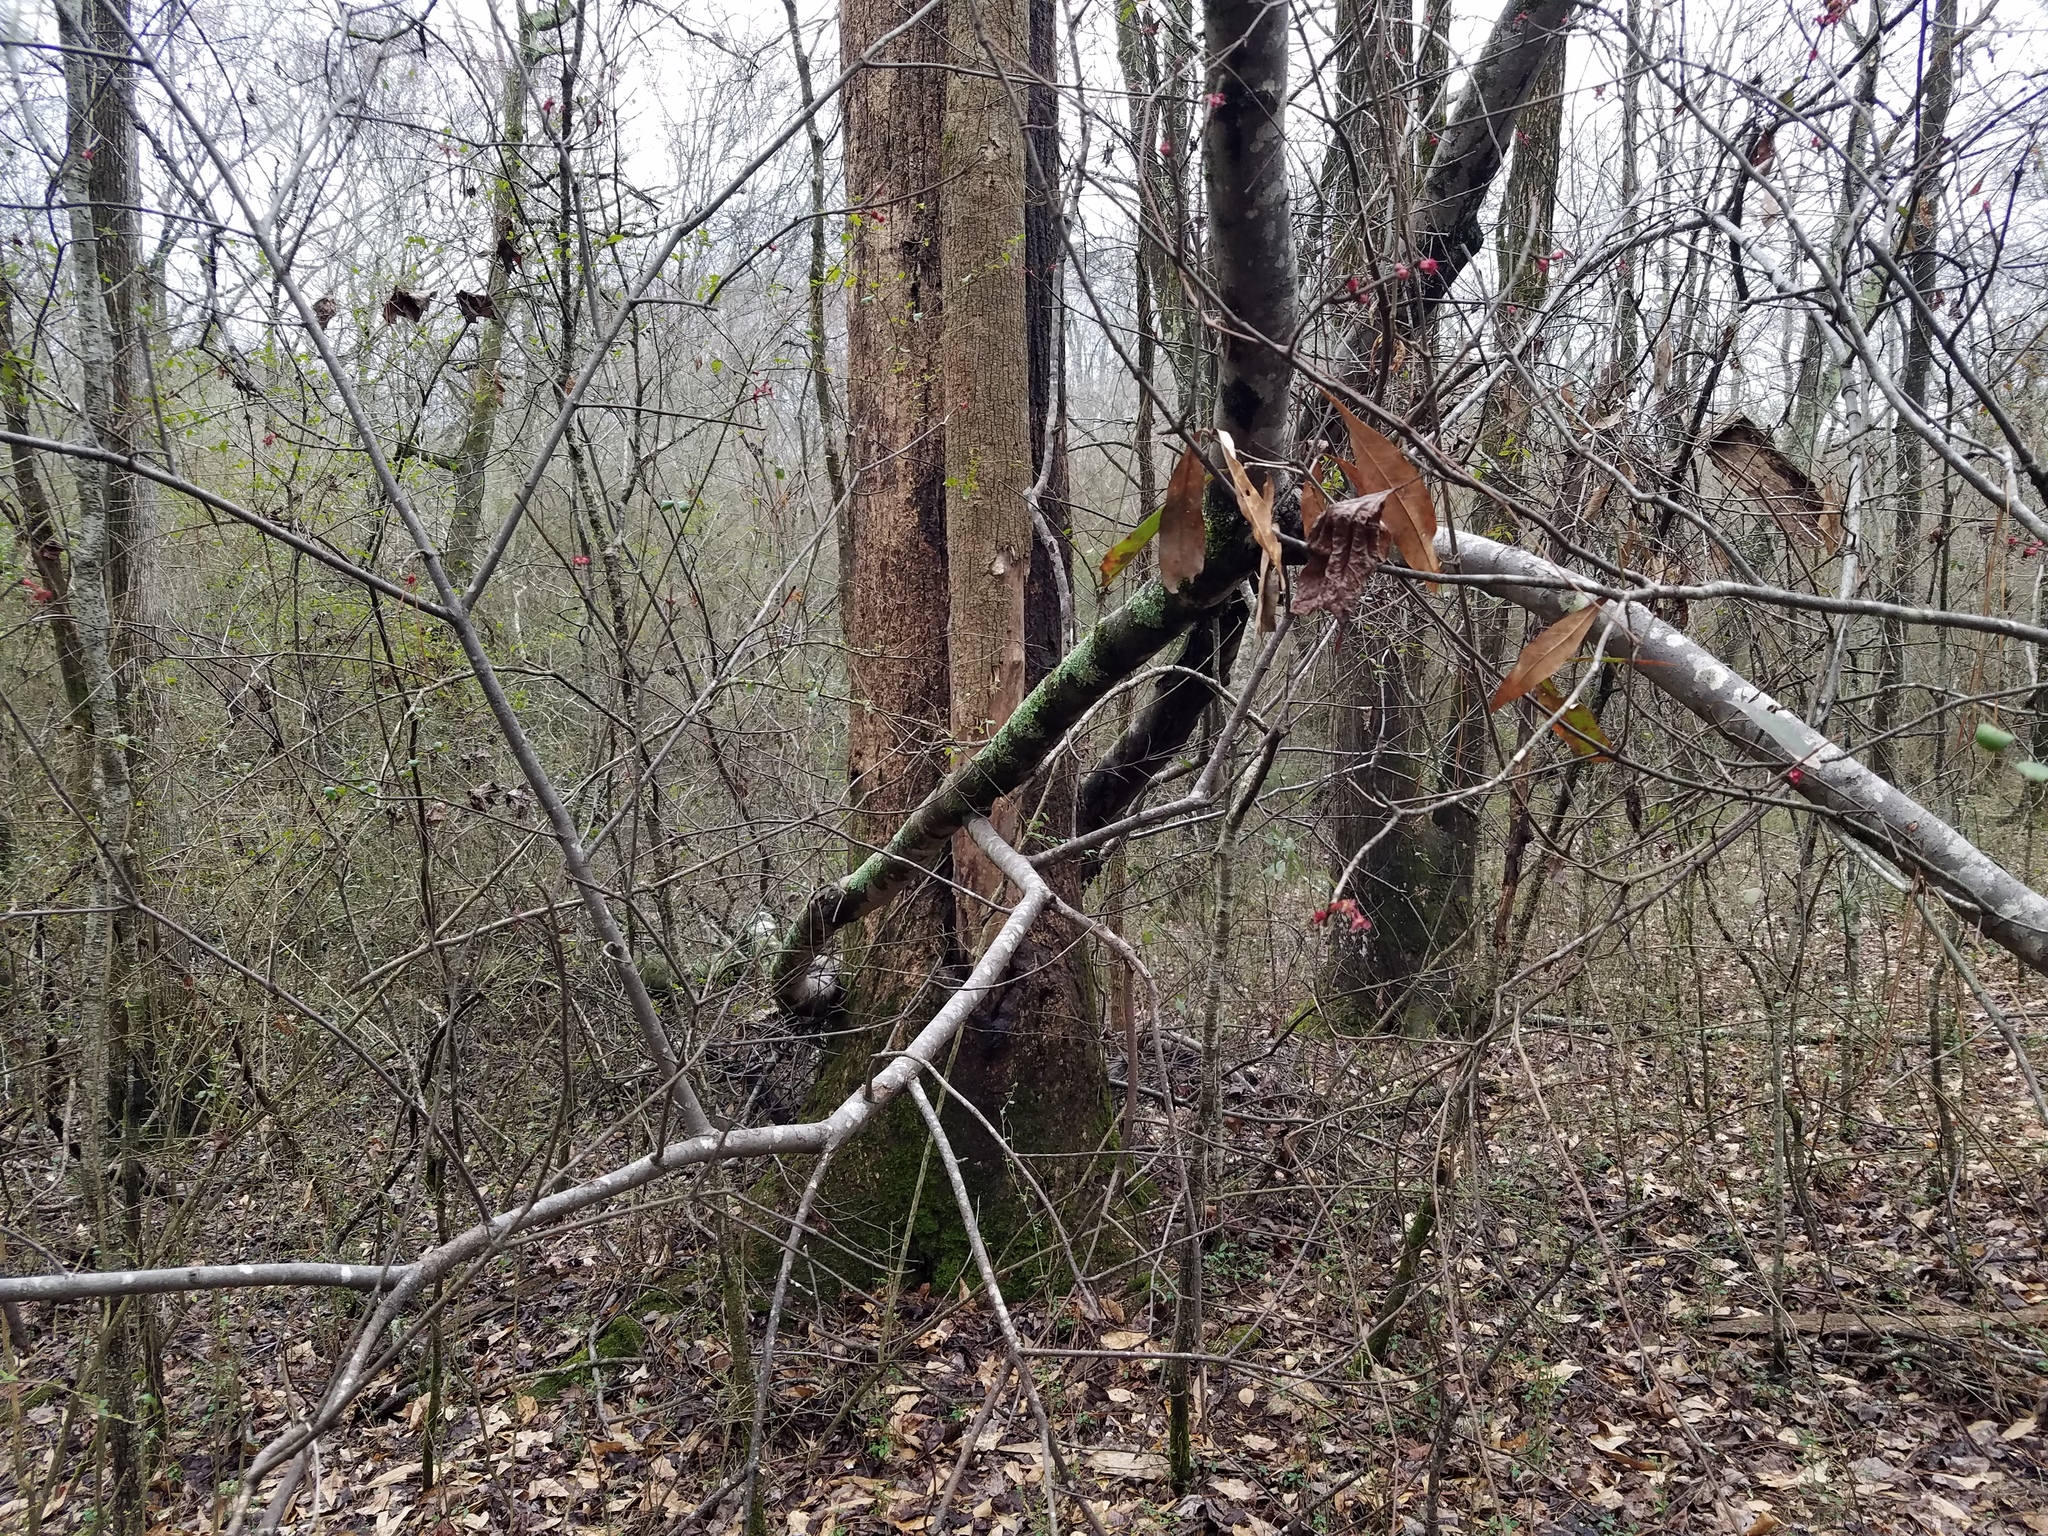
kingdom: Plantae
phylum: Tracheophyta
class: Magnoliopsida
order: Sapindales
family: Sapindaceae
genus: Acer
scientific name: Acer rubrum
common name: Red maple
